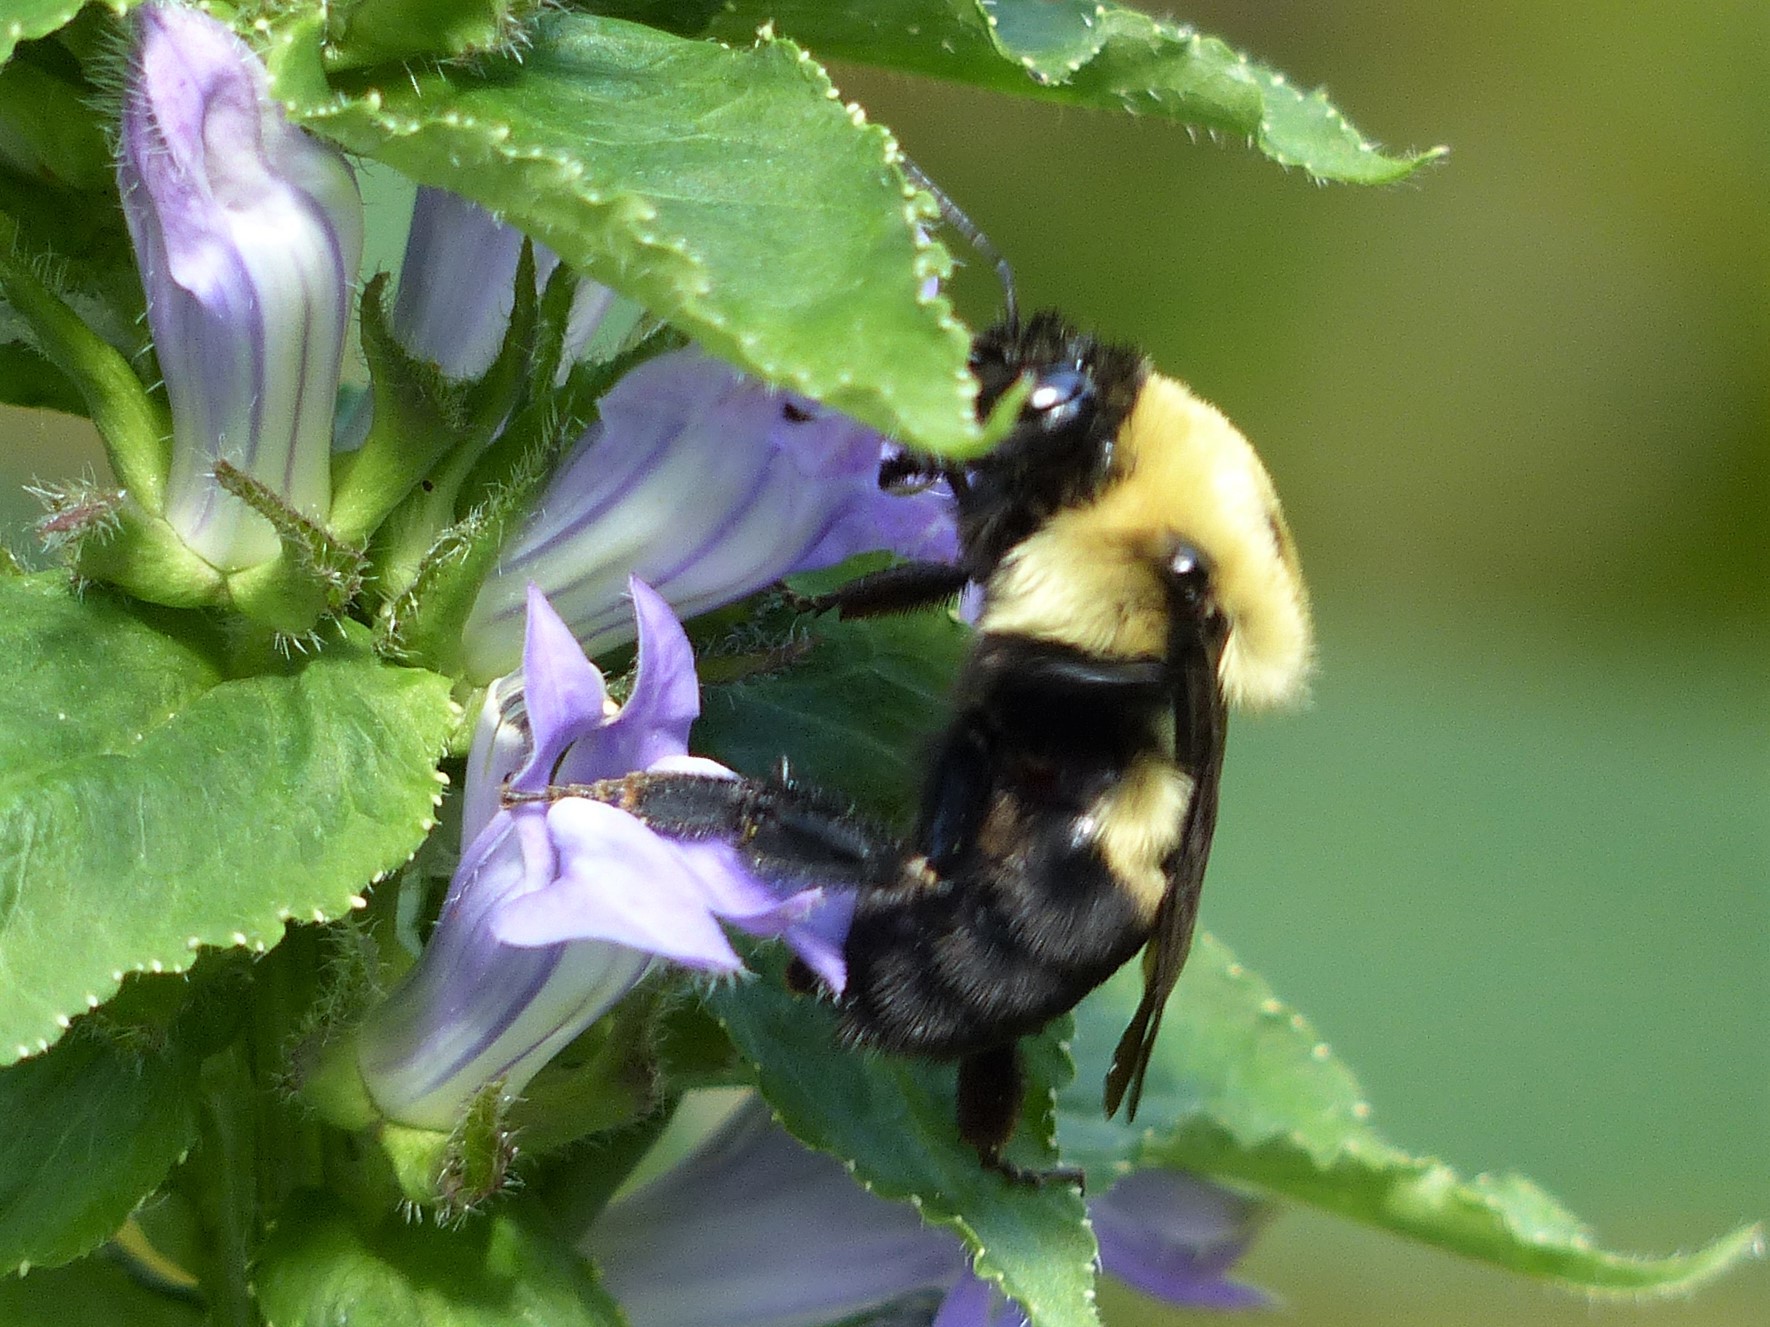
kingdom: Animalia
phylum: Arthropoda
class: Insecta
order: Hymenoptera
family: Apidae
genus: Bombus
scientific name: Bombus griseocollis
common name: Brown-belted bumble bee
